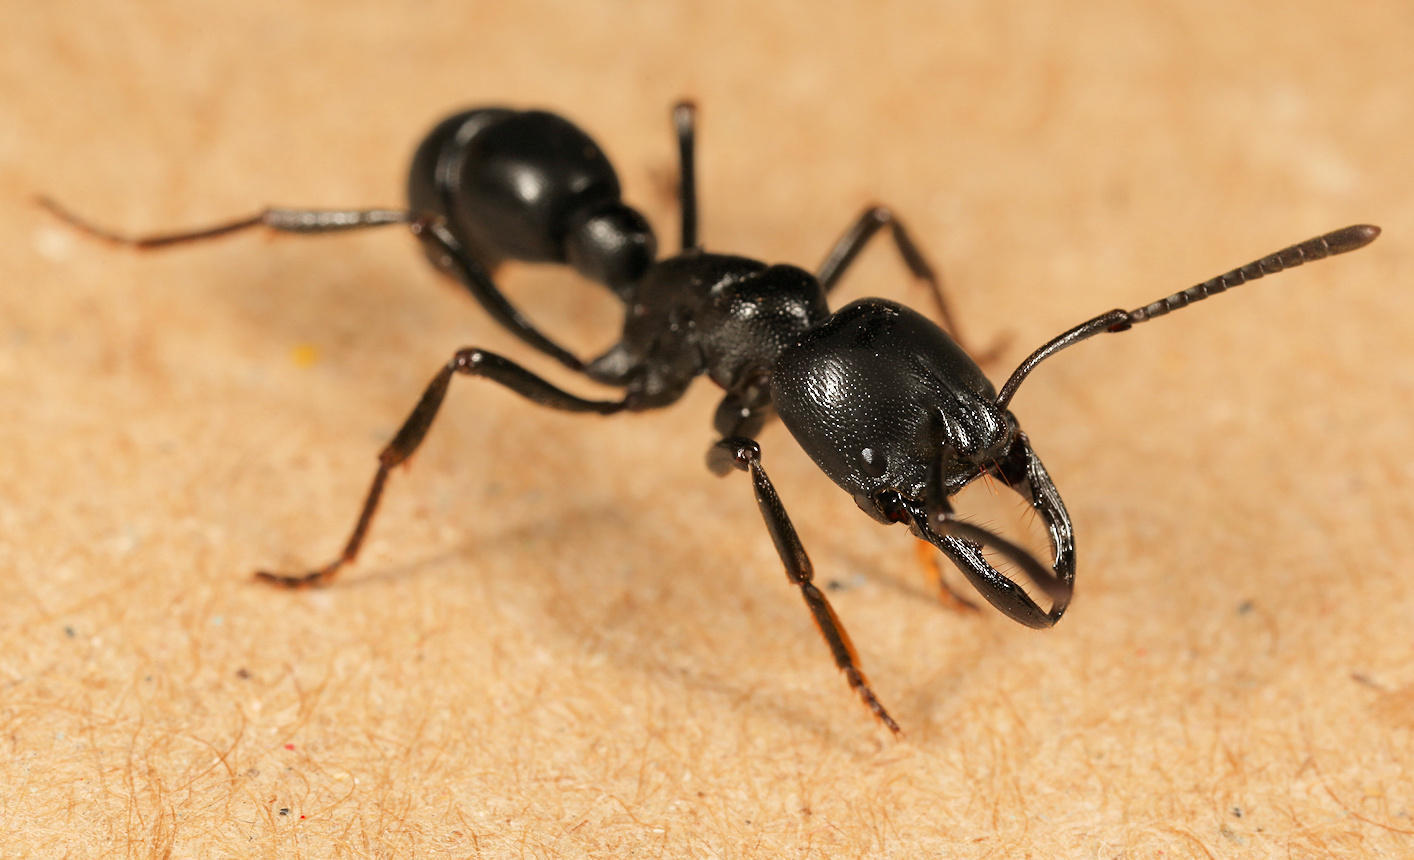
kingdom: Animalia
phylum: Arthropoda
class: Insecta
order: Hymenoptera
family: Formicidae
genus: Plectroctena
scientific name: Plectroctena mandibularis
